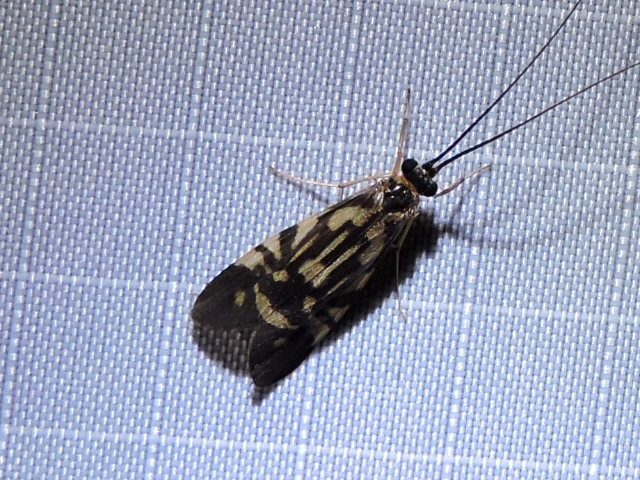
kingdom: Animalia
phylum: Arthropoda
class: Insecta
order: Trichoptera
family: Hydropsychidae
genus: Macrostemum
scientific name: Macrostemum carolina
